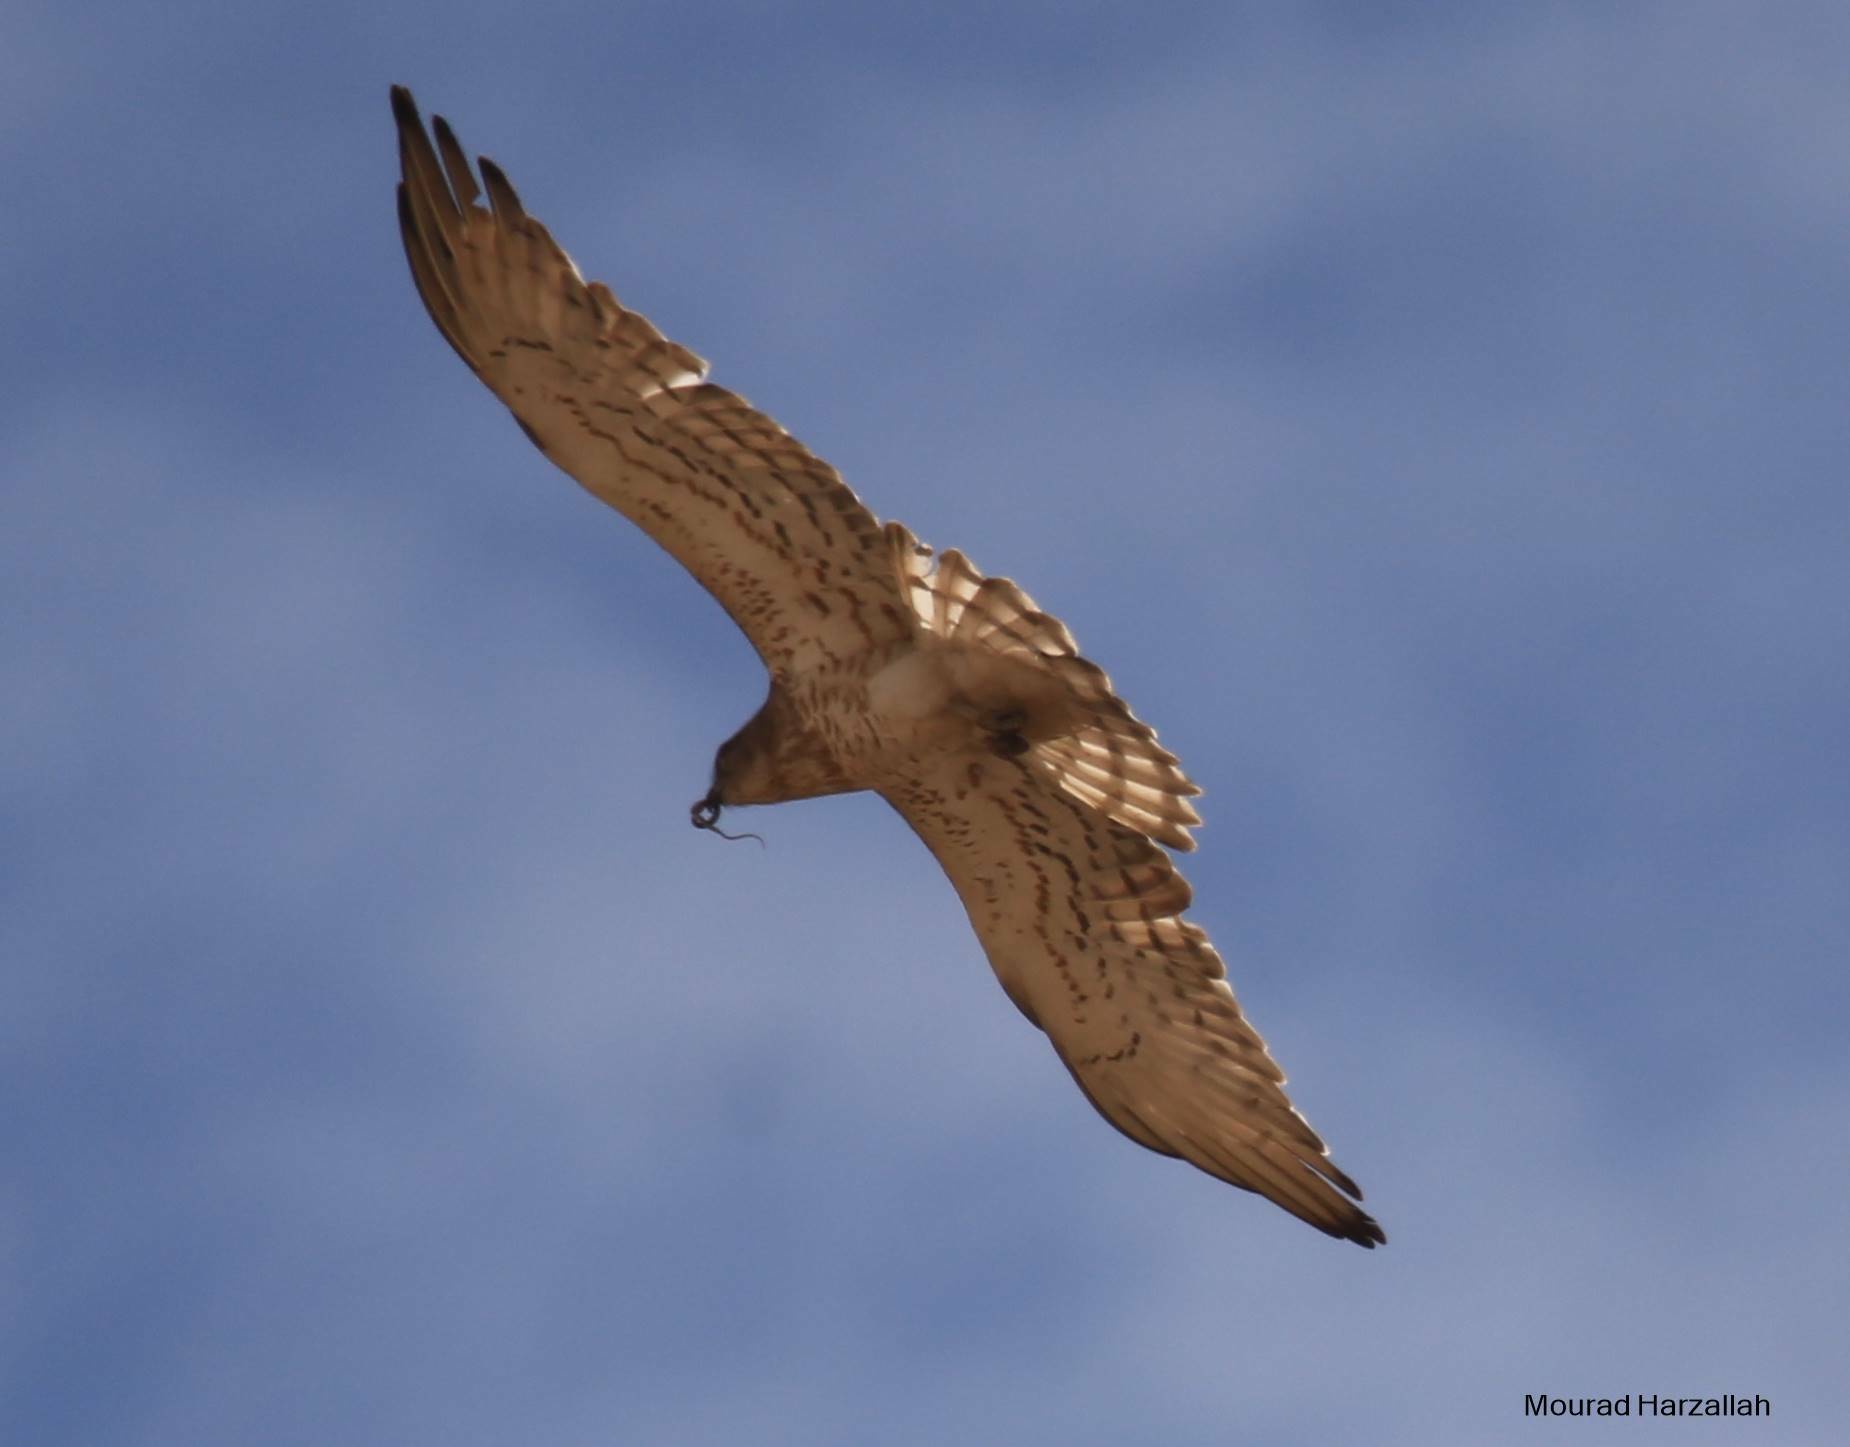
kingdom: Animalia
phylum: Chordata
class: Aves
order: Accipitriformes
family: Accipitridae
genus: Circaetus
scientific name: Circaetus gallicus
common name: Short-toed snake eagle
